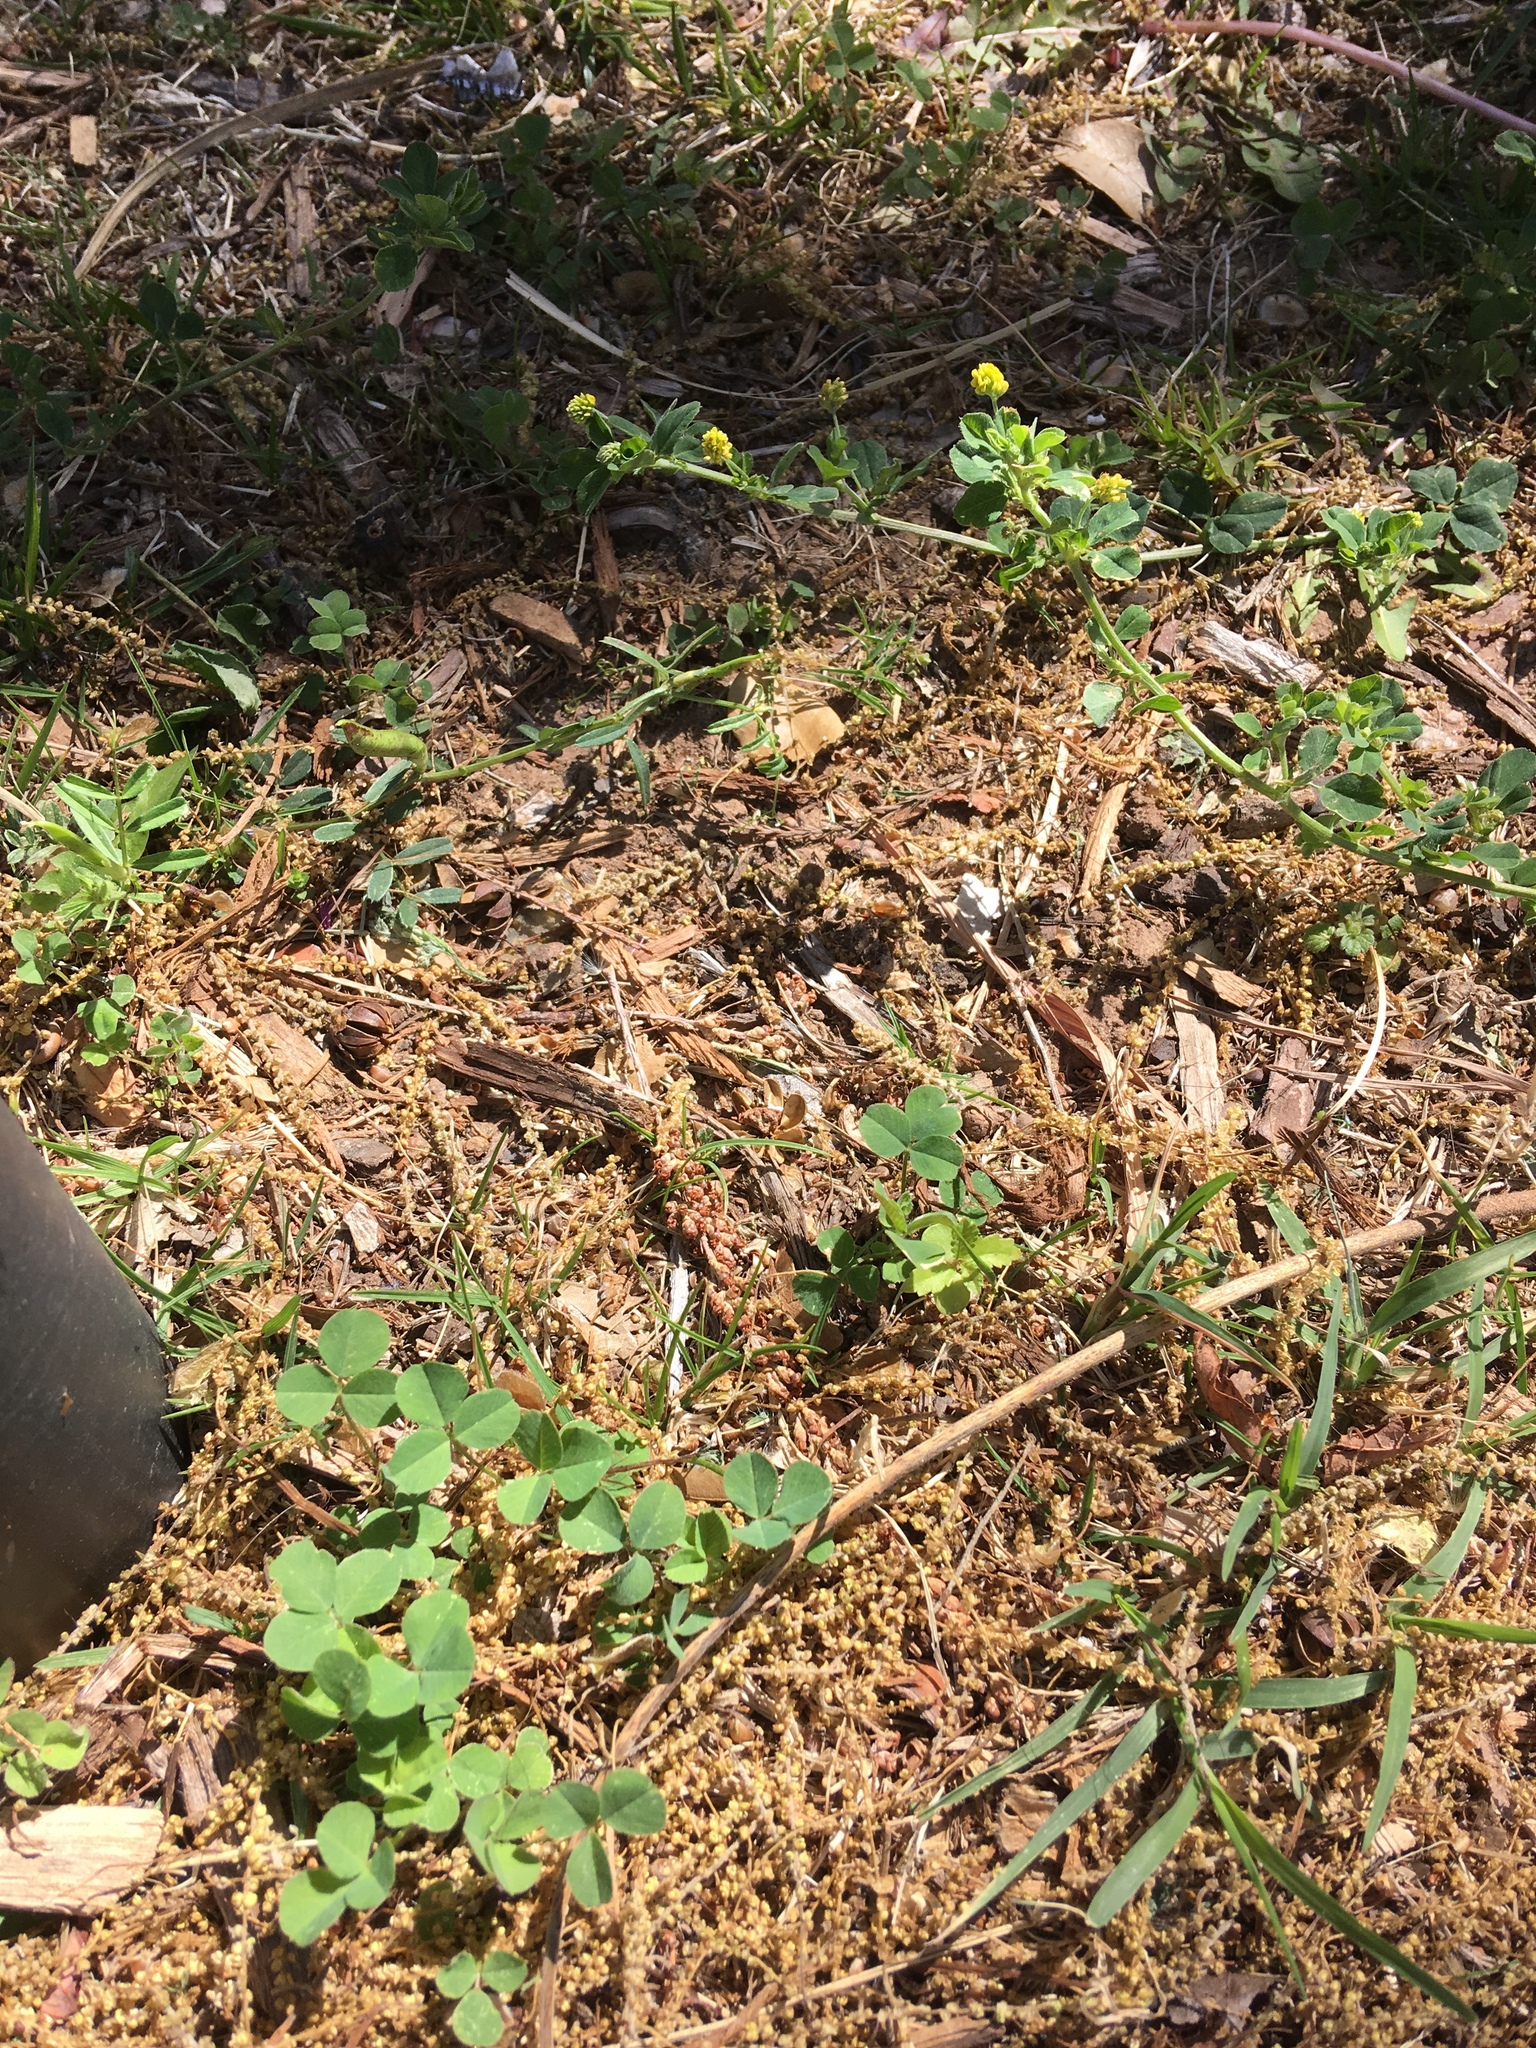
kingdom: Plantae
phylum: Tracheophyta
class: Magnoliopsida
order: Fabales
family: Fabaceae
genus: Medicago
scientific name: Medicago lupulina
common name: Black medick
